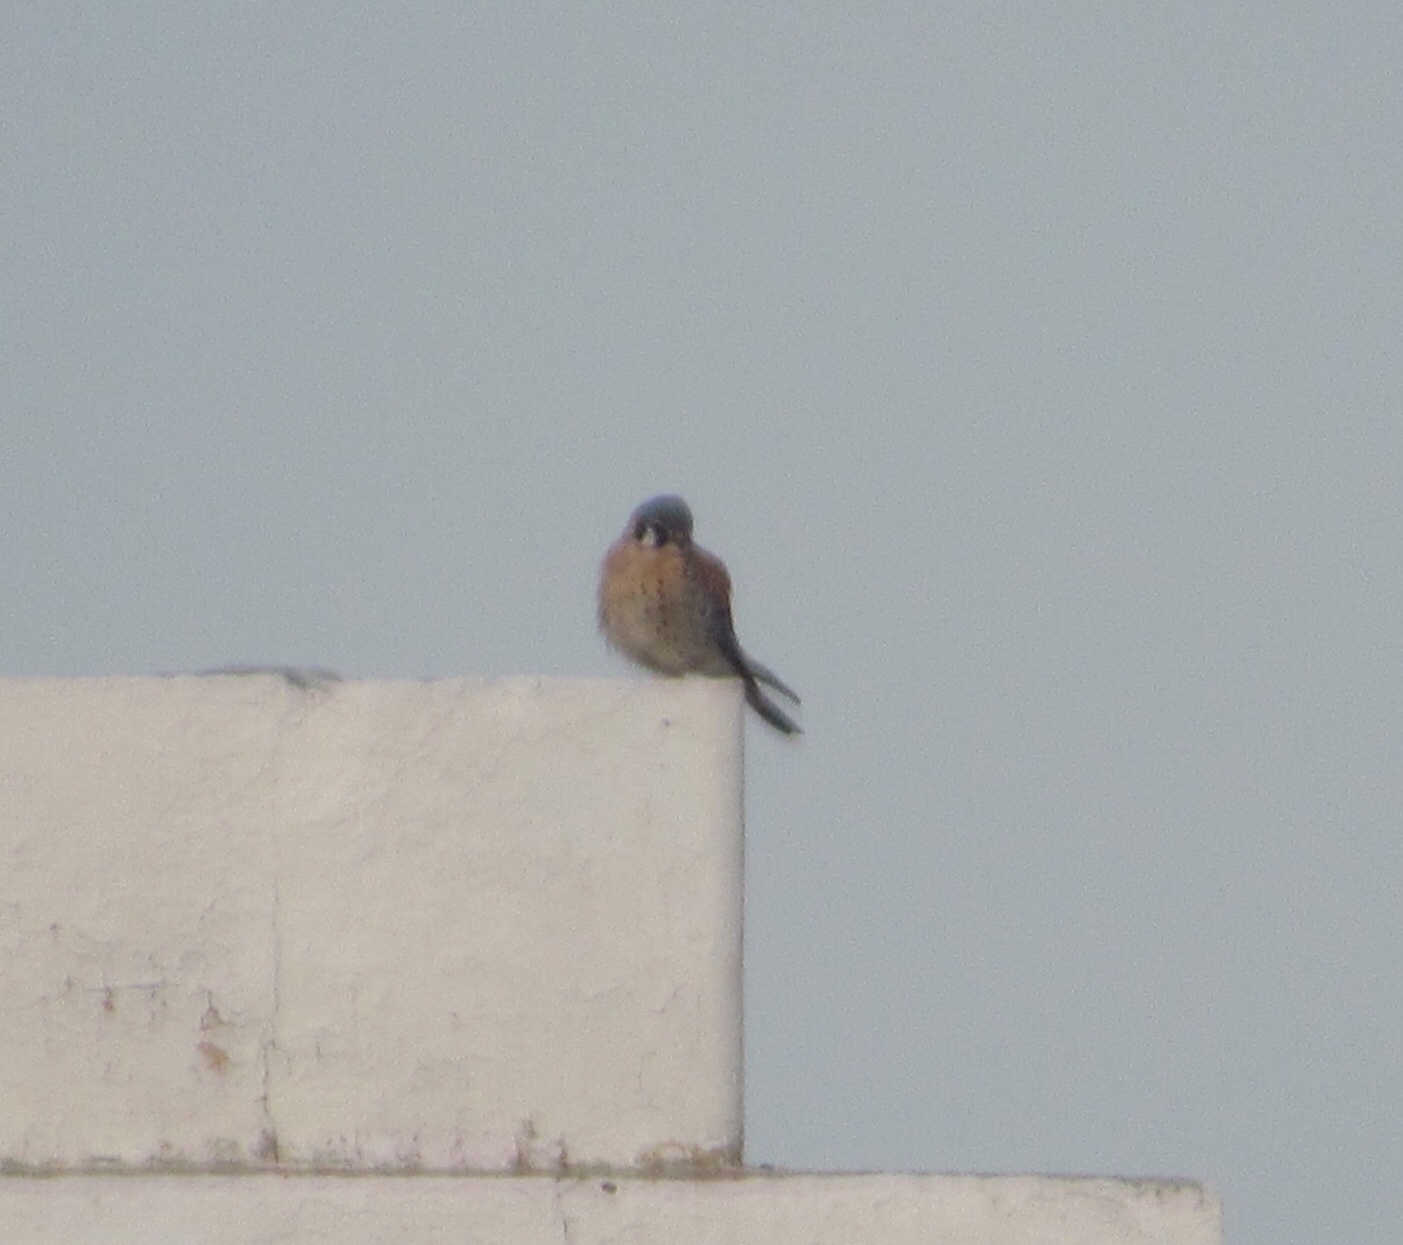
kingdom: Animalia
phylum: Chordata
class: Aves
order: Falconiformes
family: Falconidae
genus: Falco
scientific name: Falco sparverius
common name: American kestrel
